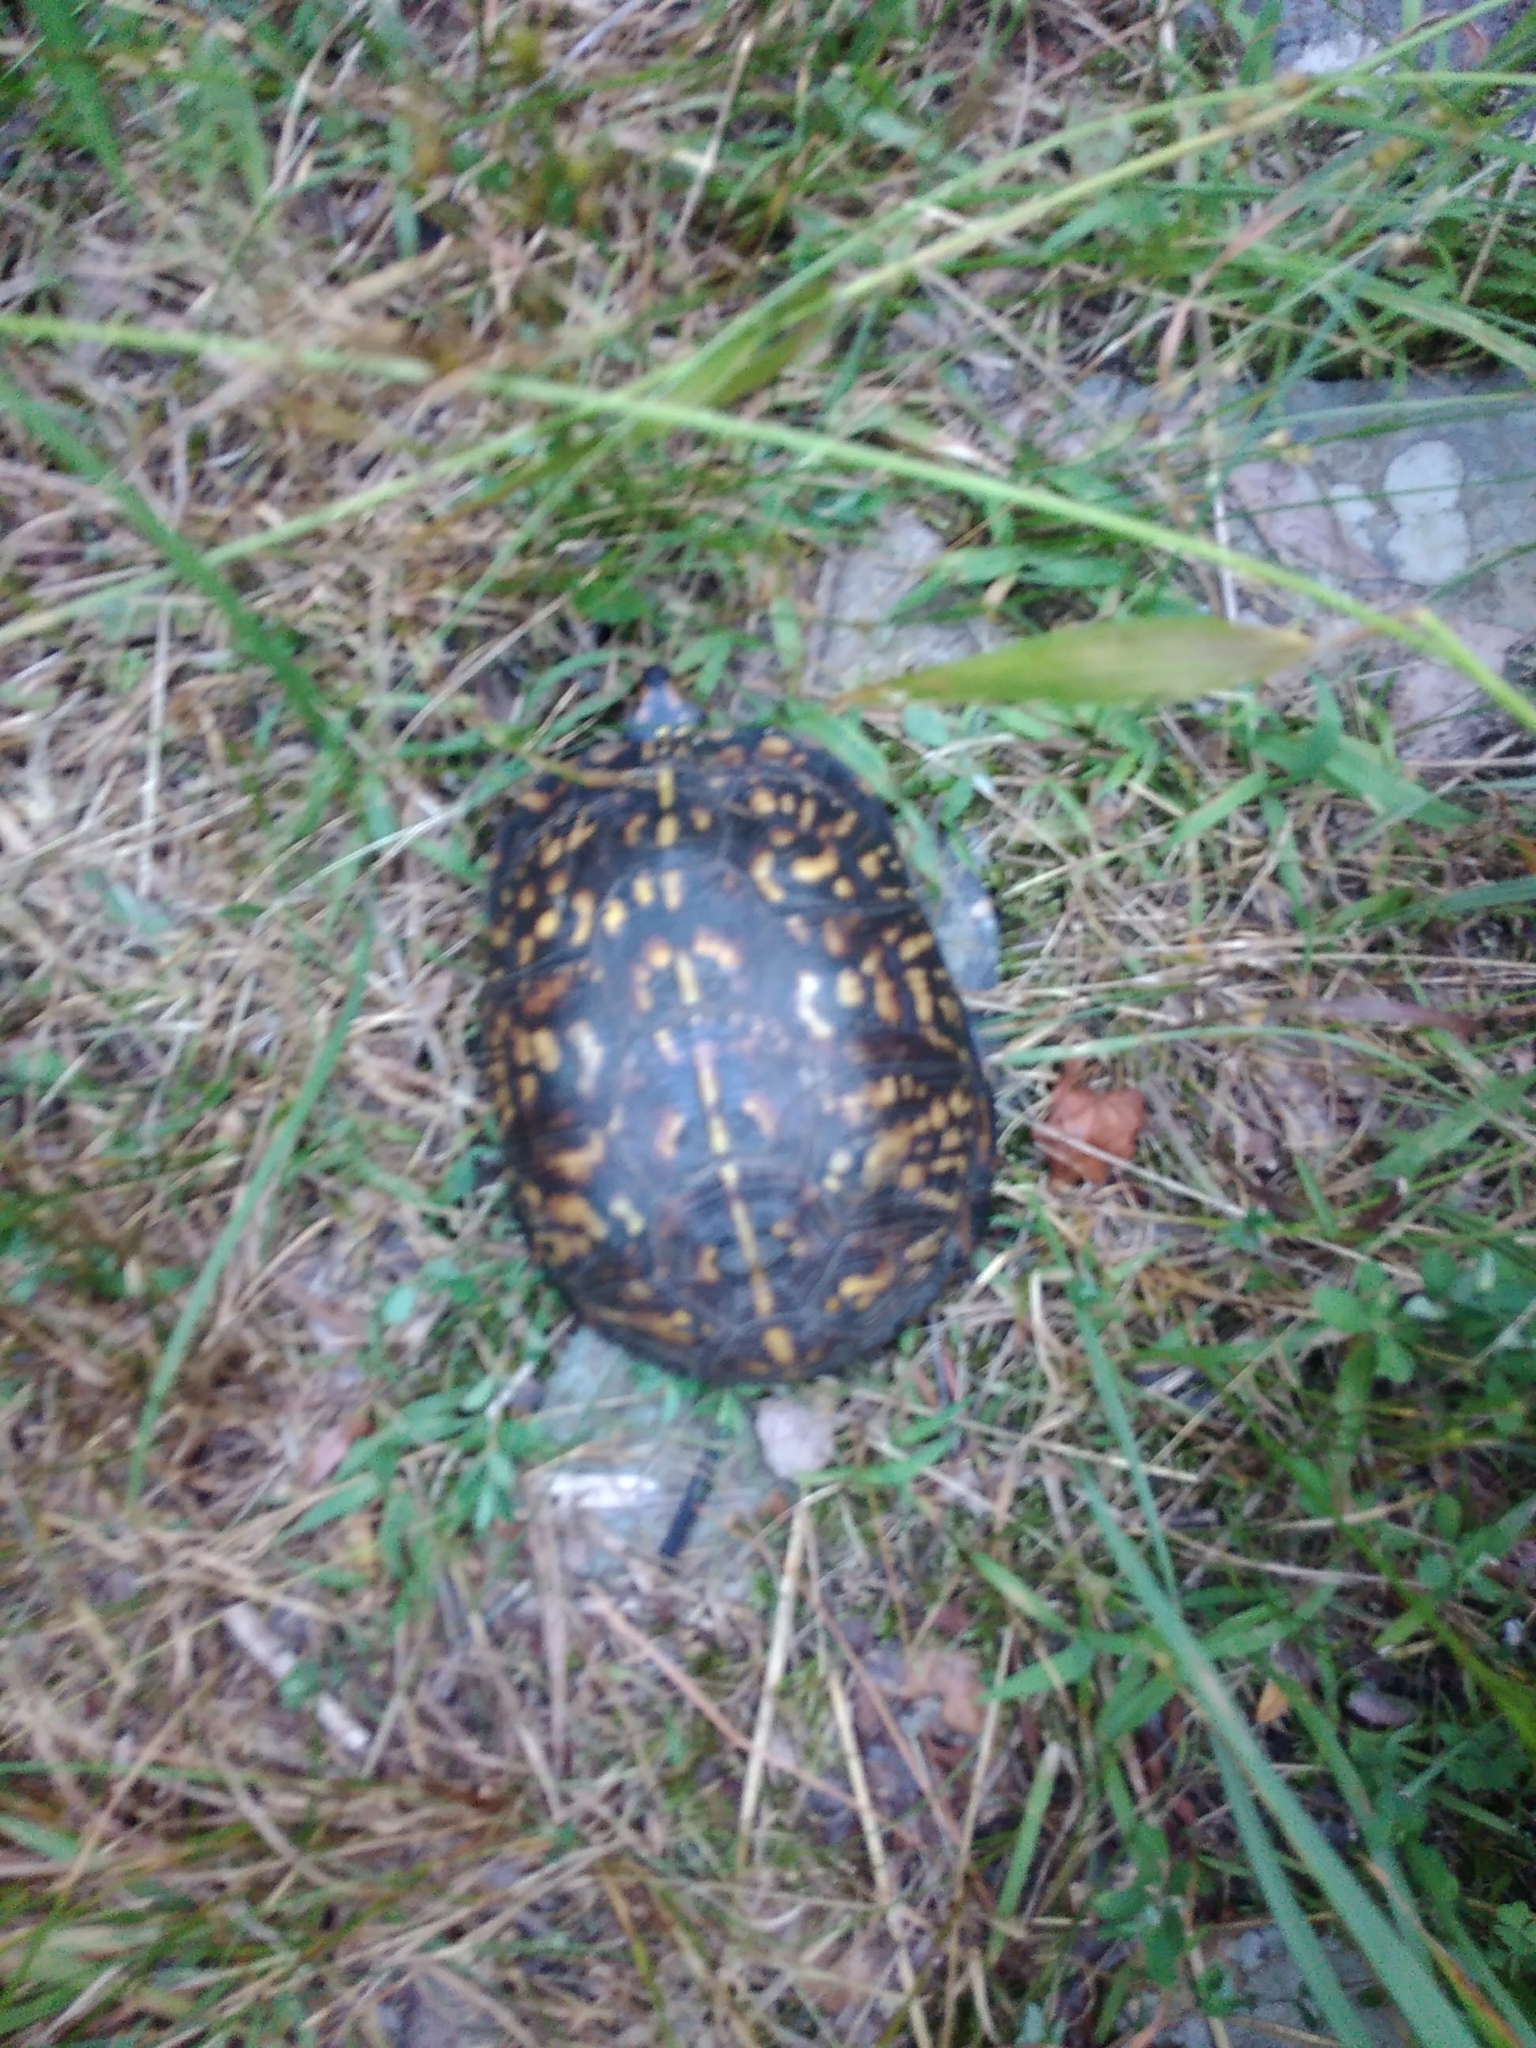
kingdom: Animalia
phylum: Chordata
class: Testudines
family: Emydidae
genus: Terrapene
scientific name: Terrapene carolina
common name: Common box turtle
